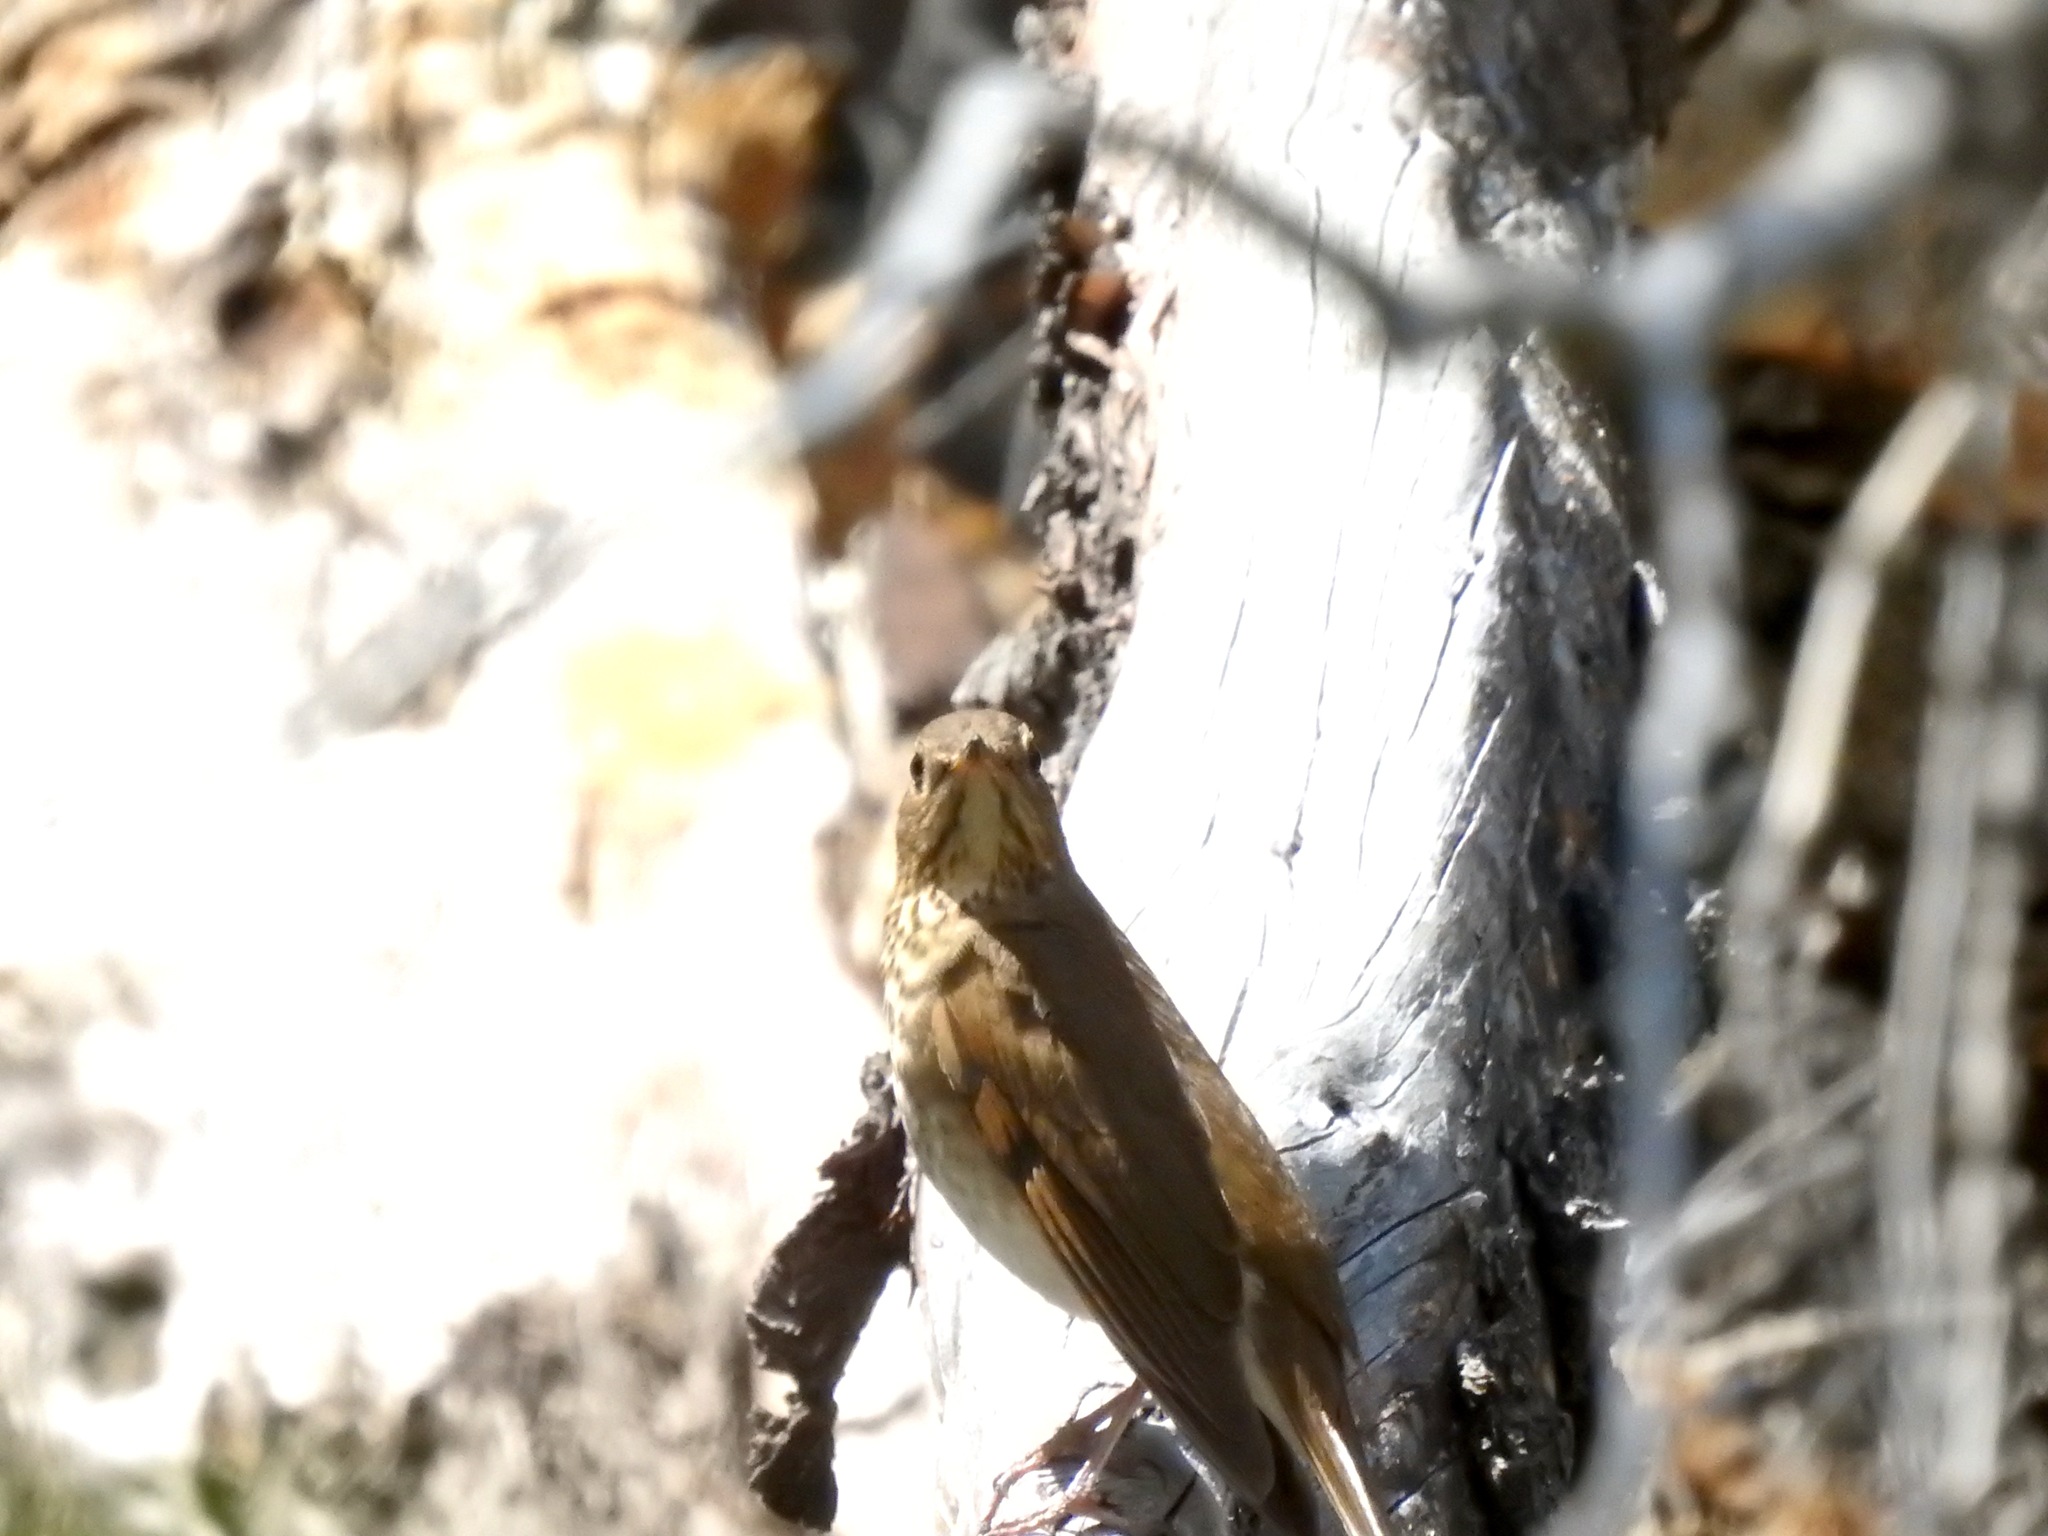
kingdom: Animalia
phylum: Chordata
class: Aves
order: Passeriformes
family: Turdidae
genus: Catharus
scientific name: Catharus ustulatus
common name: Swainson's thrush
